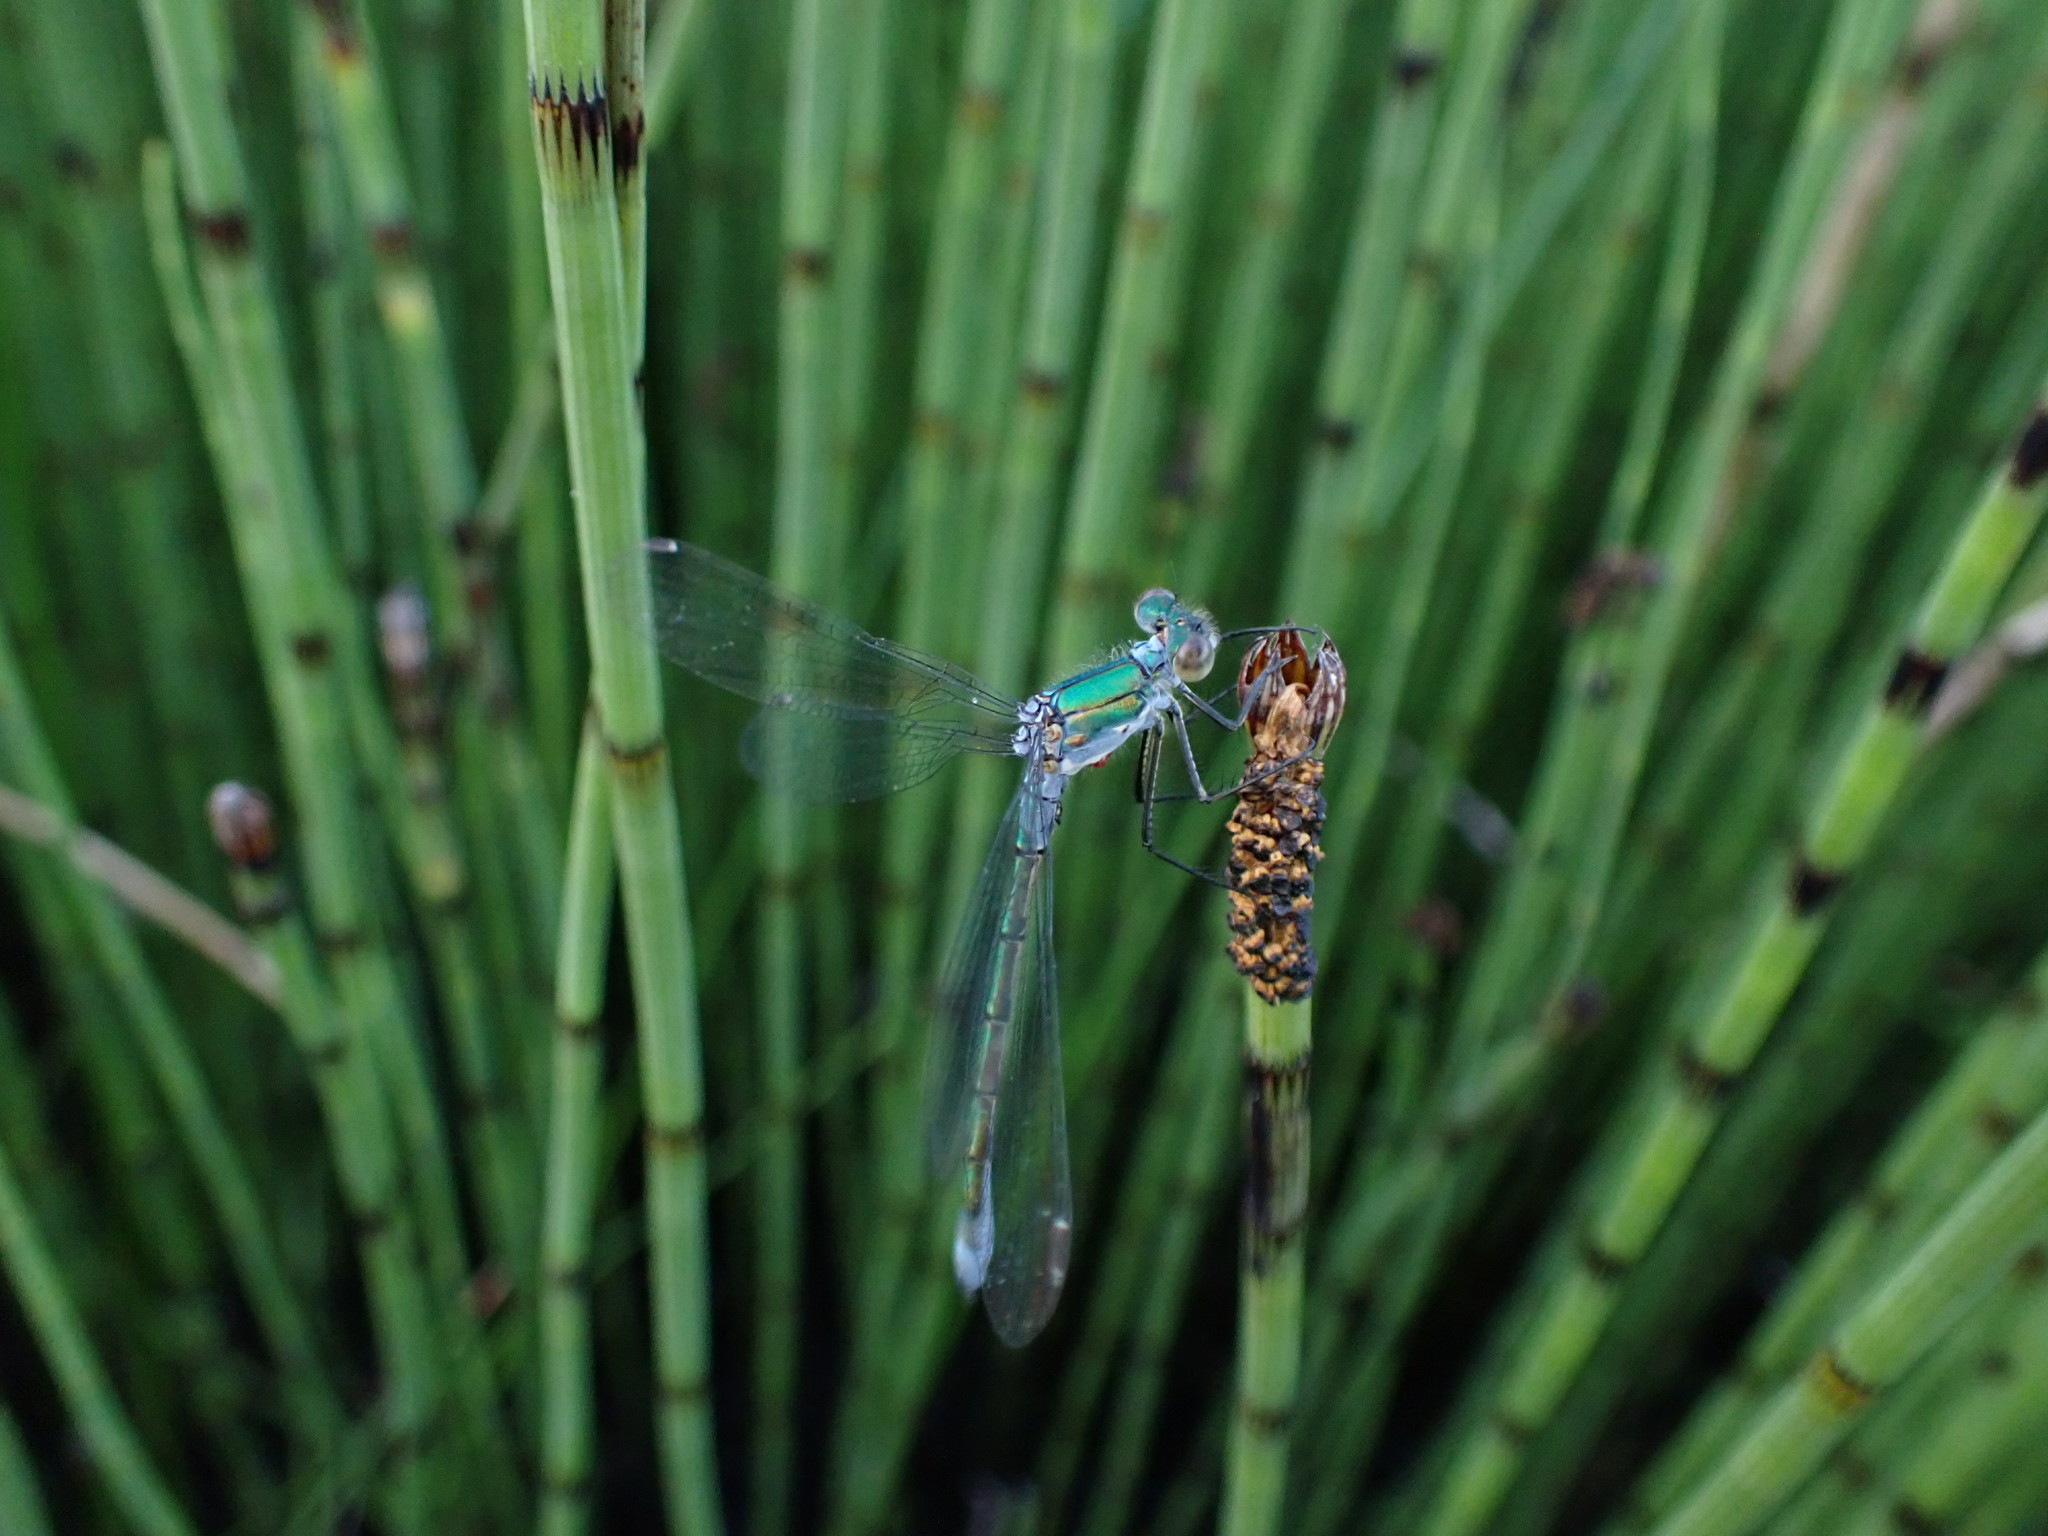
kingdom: Animalia
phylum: Arthropoda
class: Insecta
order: Odonata
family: Lestidae
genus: Lestes
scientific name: Lestes sponsa
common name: Common spreadwing
